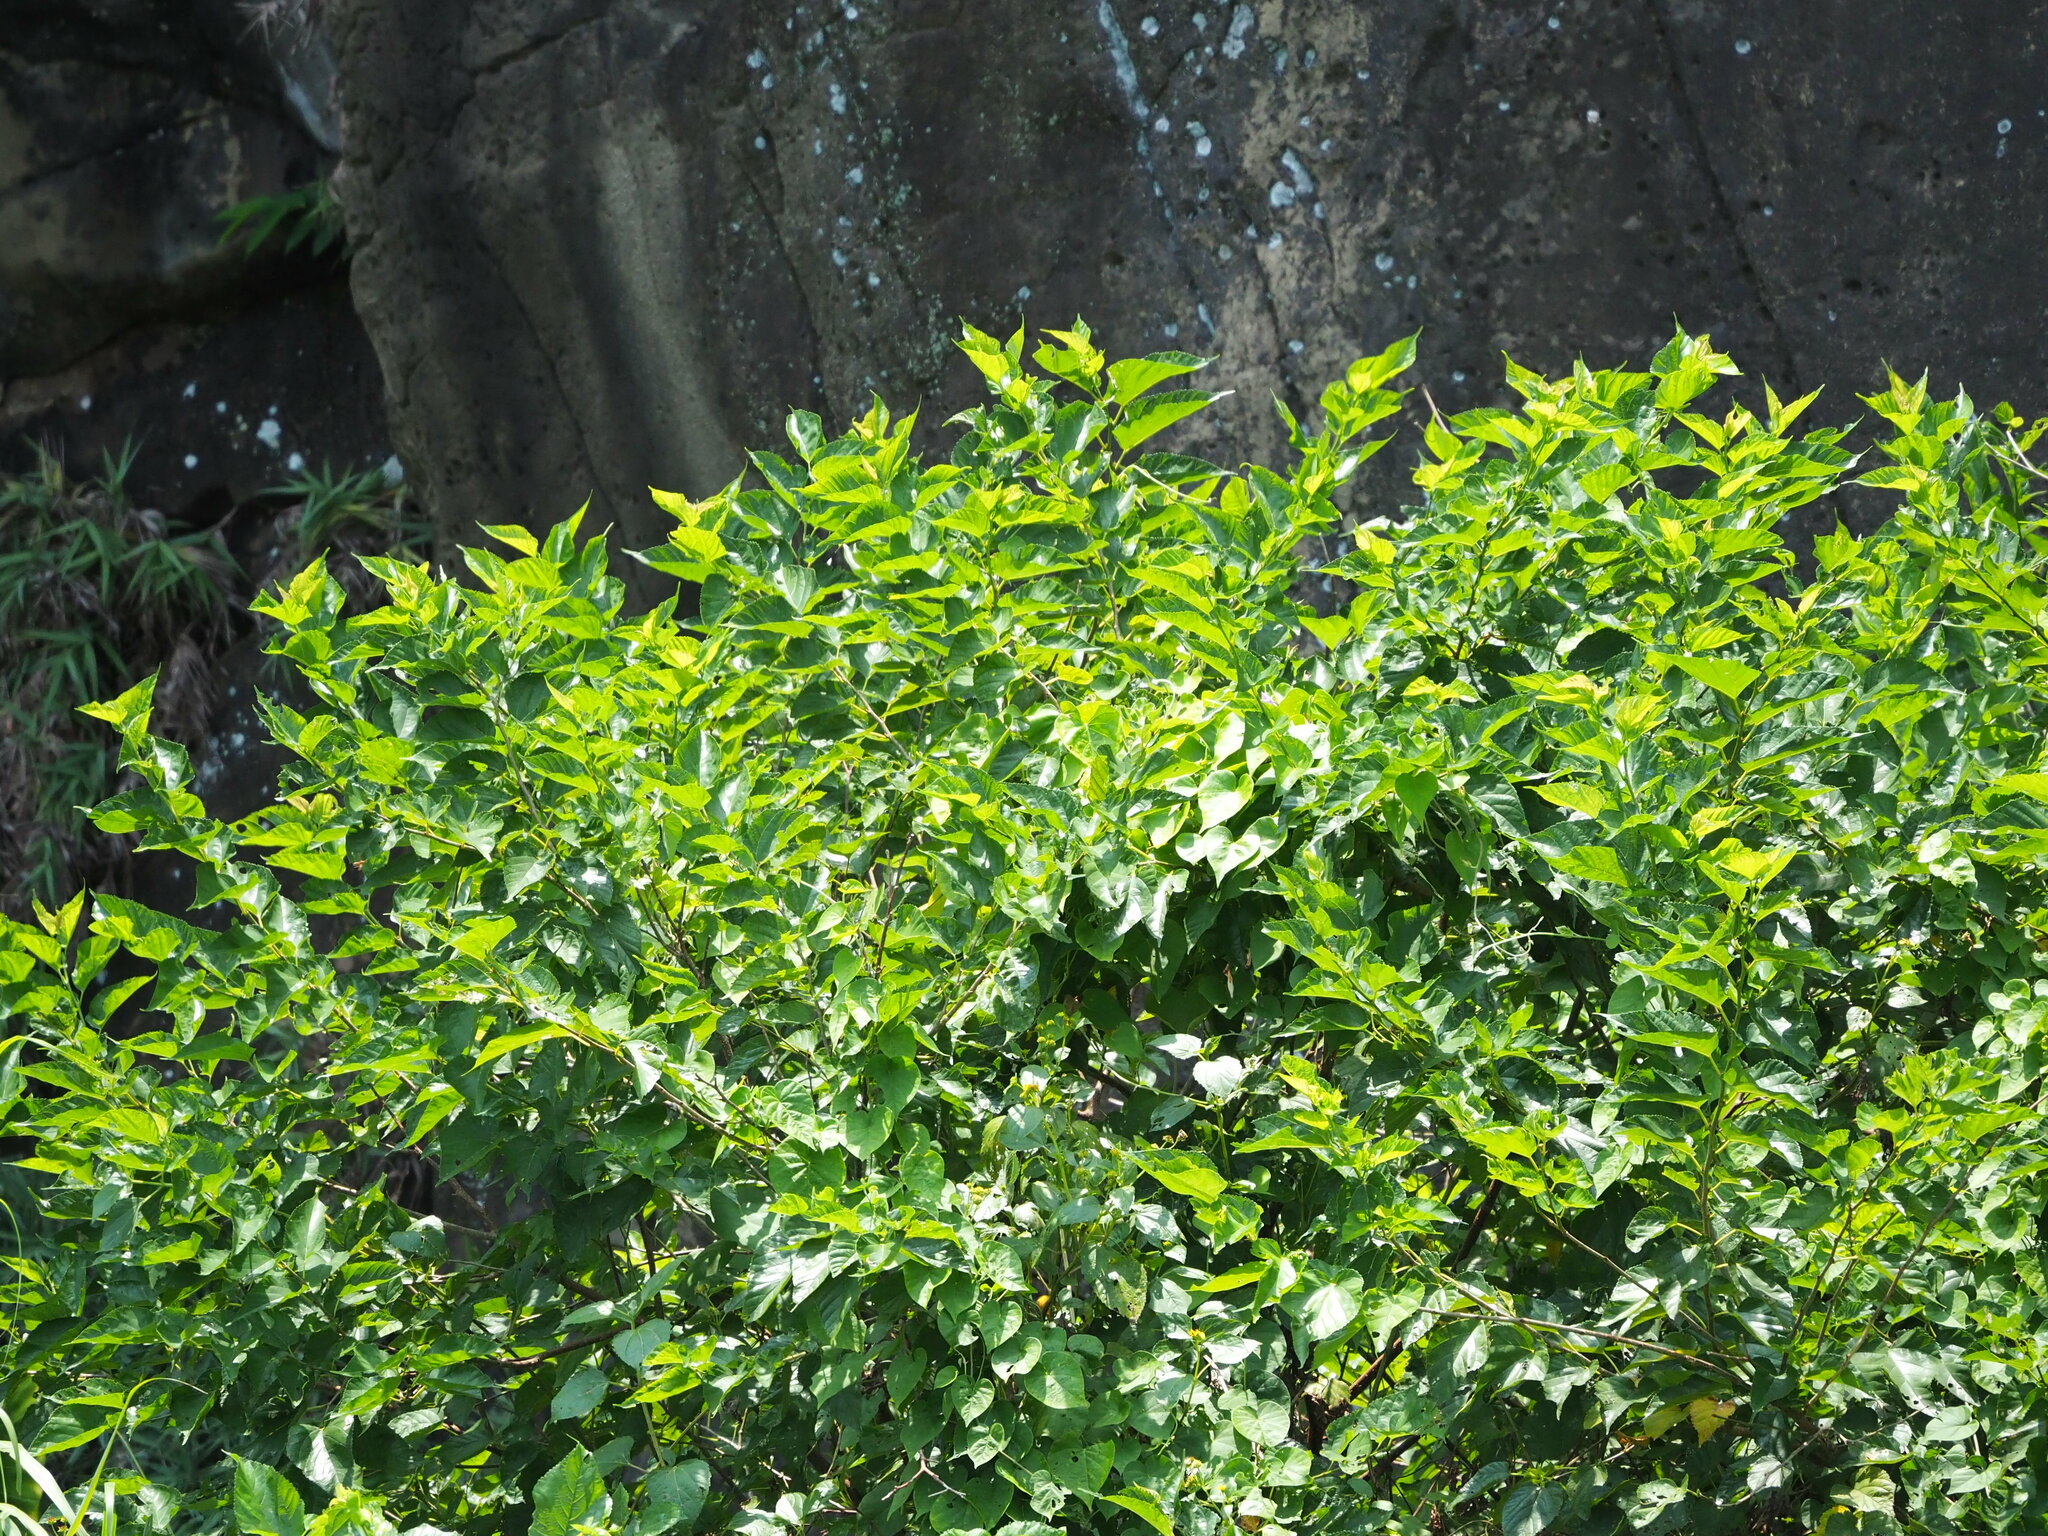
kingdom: Plantae
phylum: Tracheophyta
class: Magnoliopsida
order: Rosales
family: Moraceae
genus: Morus
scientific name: Morus indica
